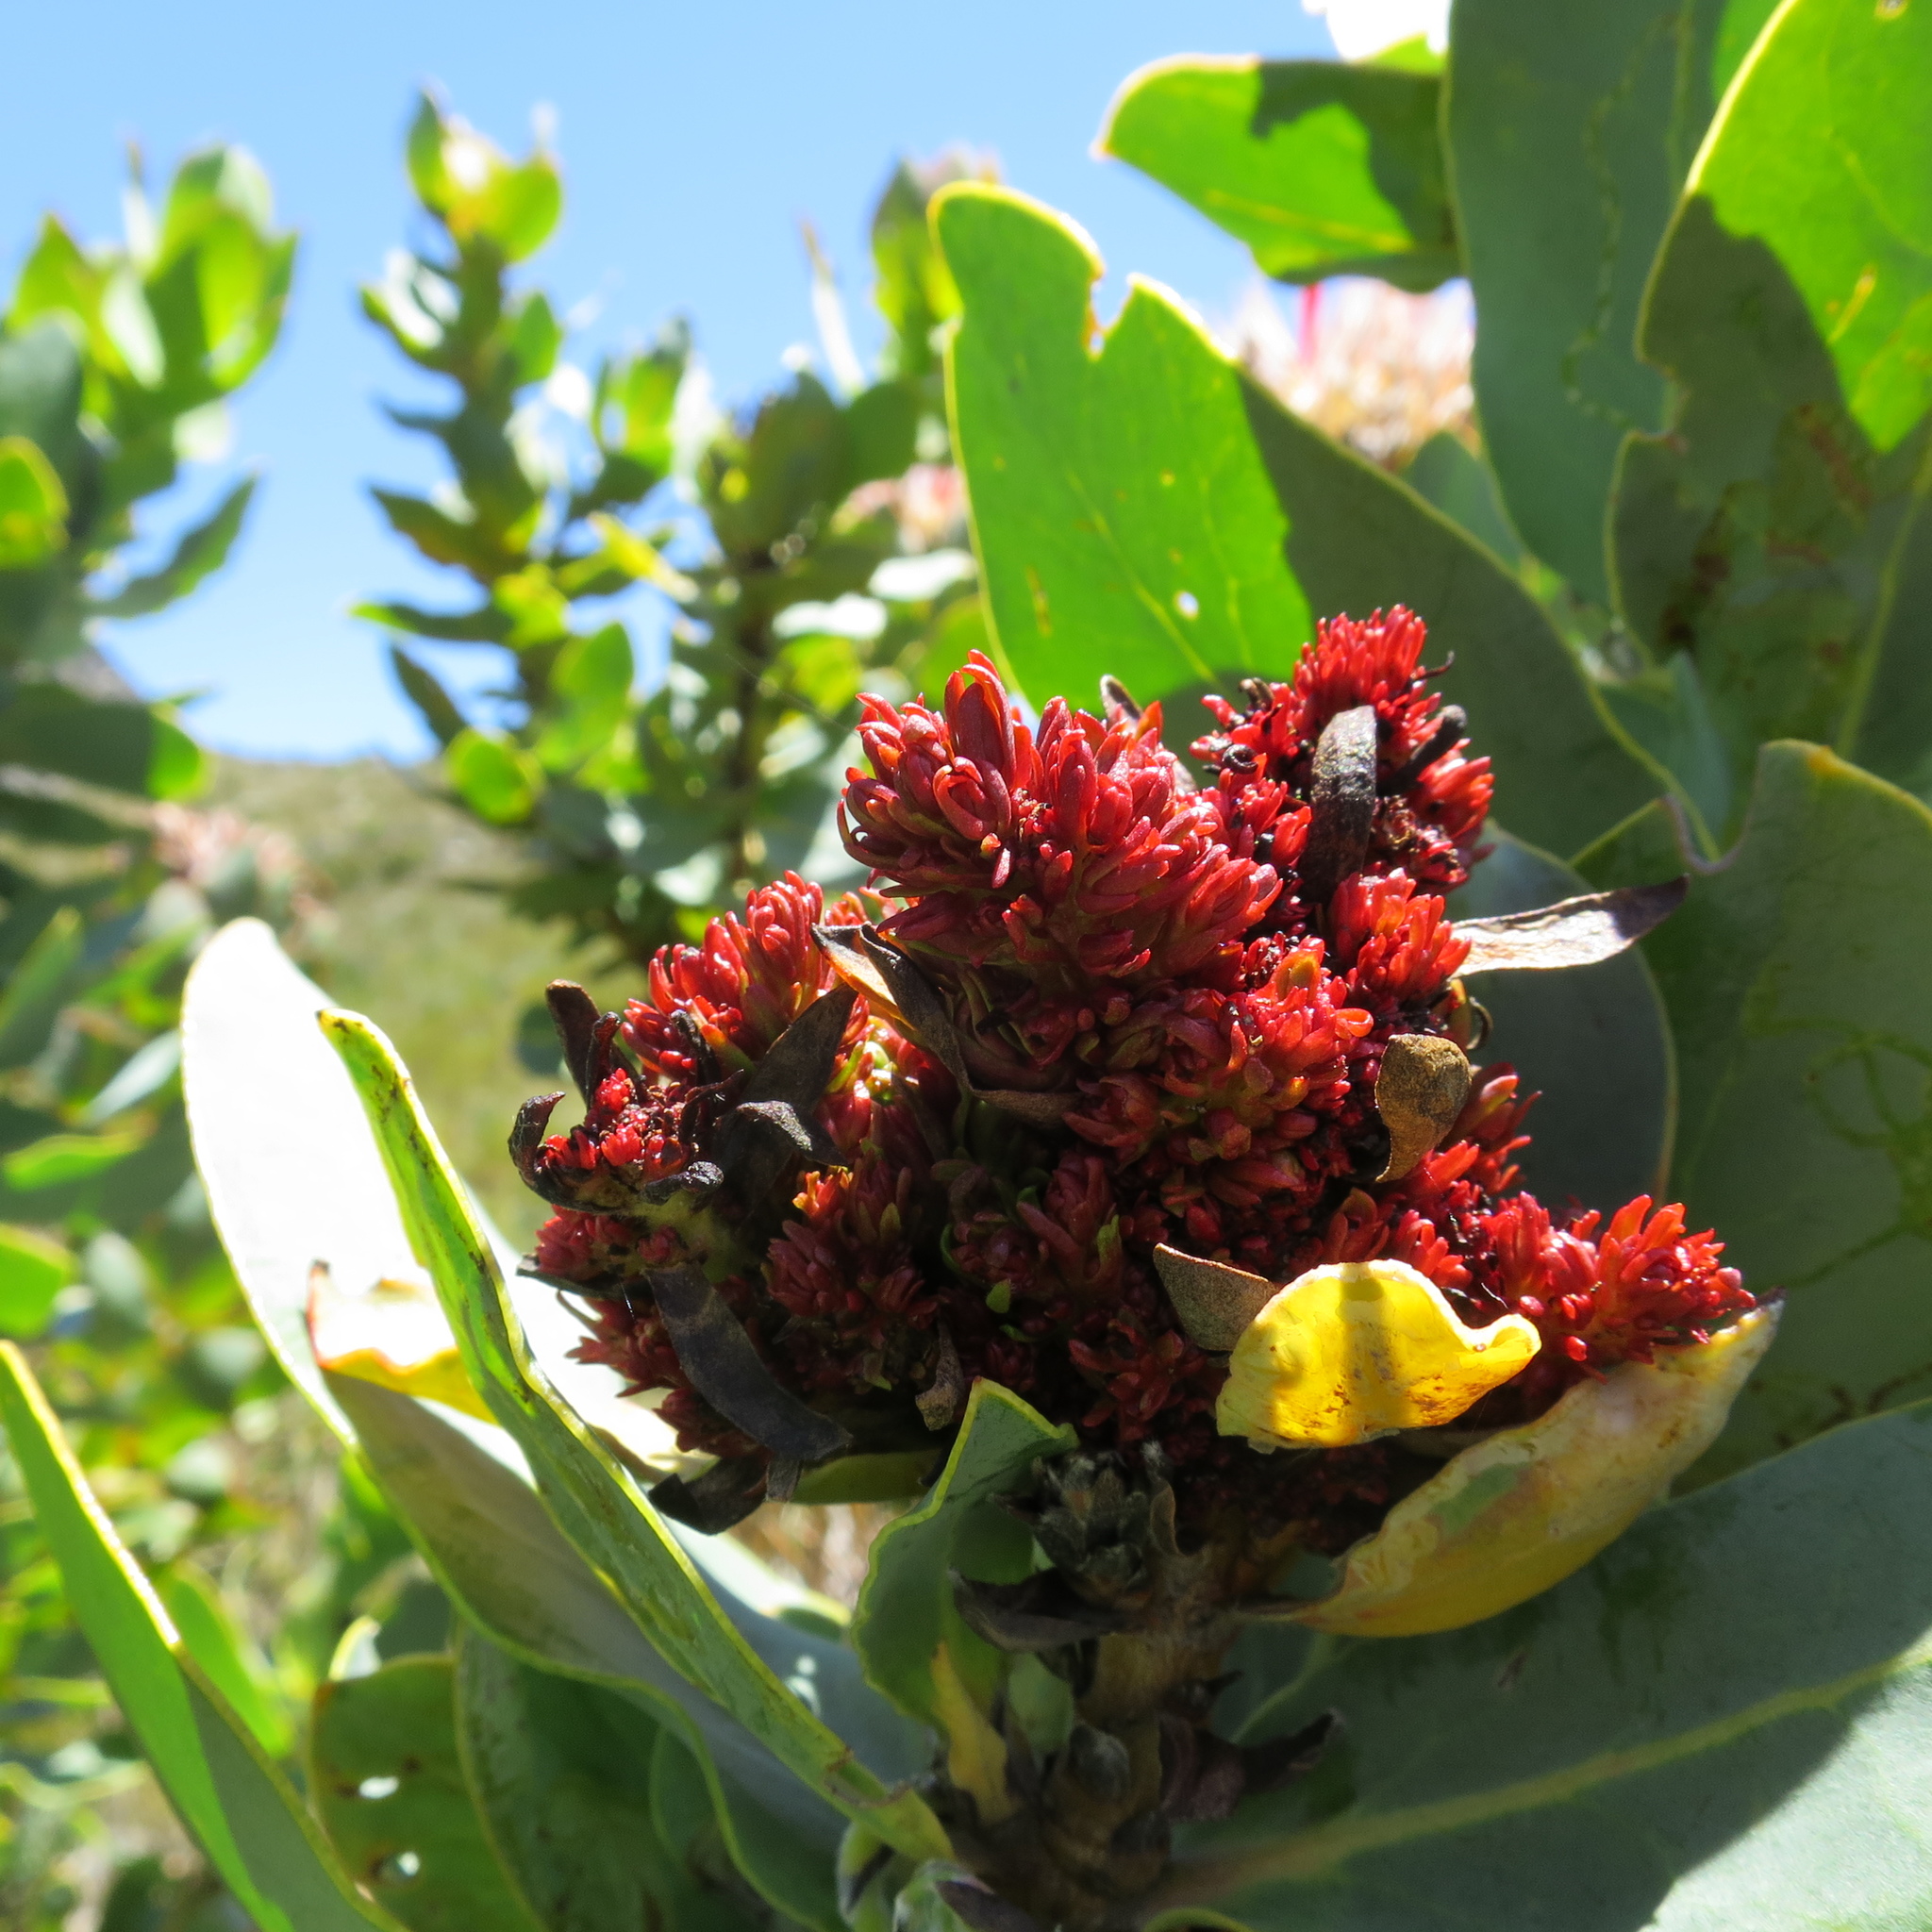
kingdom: Bacteria
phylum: Firmicutes
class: Bacilli
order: Acholeplasmatales
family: Acholeplasmataceae
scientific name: Acholeplasmataceae
